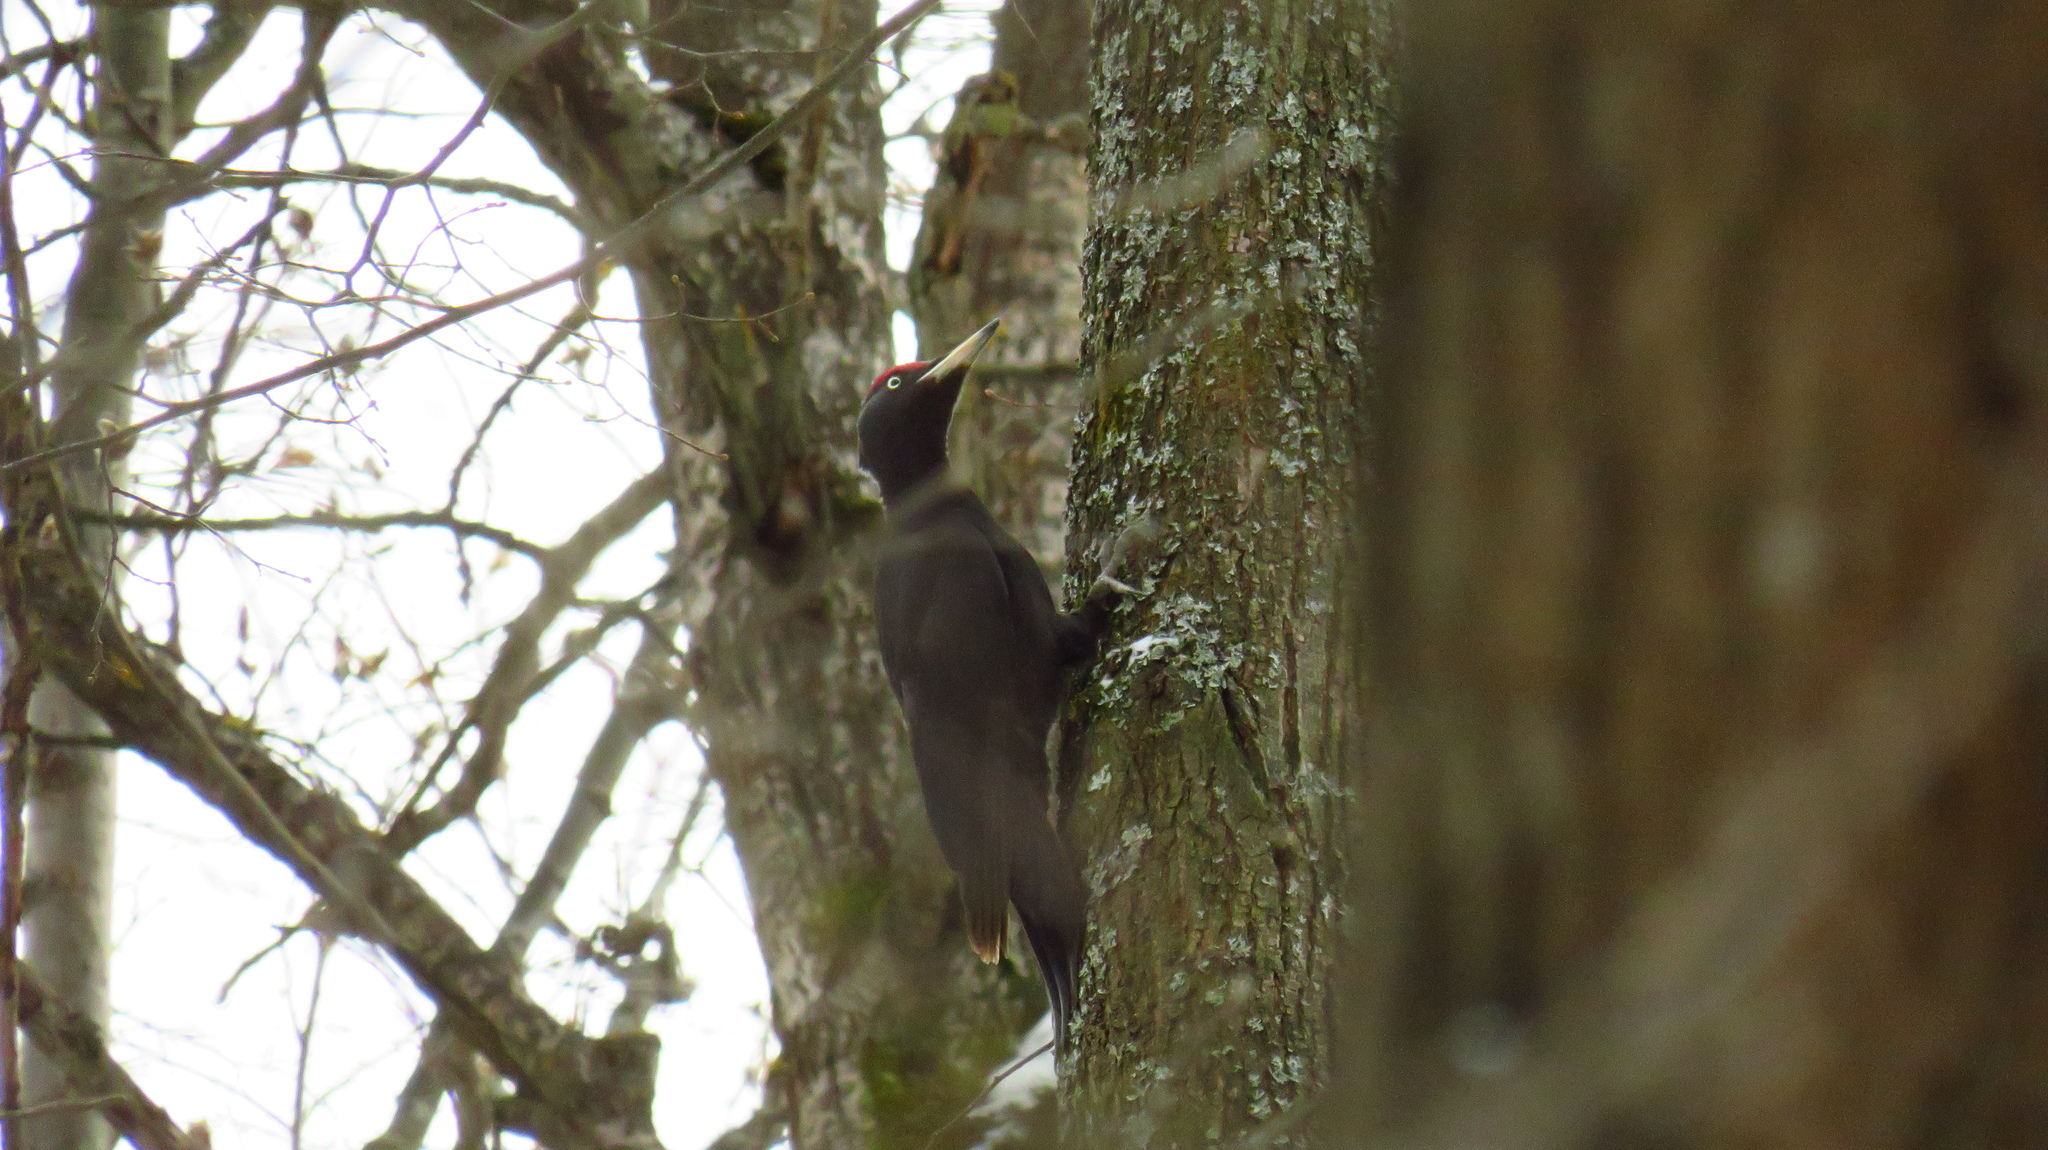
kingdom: Animalia
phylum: Chordata
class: Aves
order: Piciformes
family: Picidae
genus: Dryocopus
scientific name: Dryocopus martius
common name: Black woodpecker
